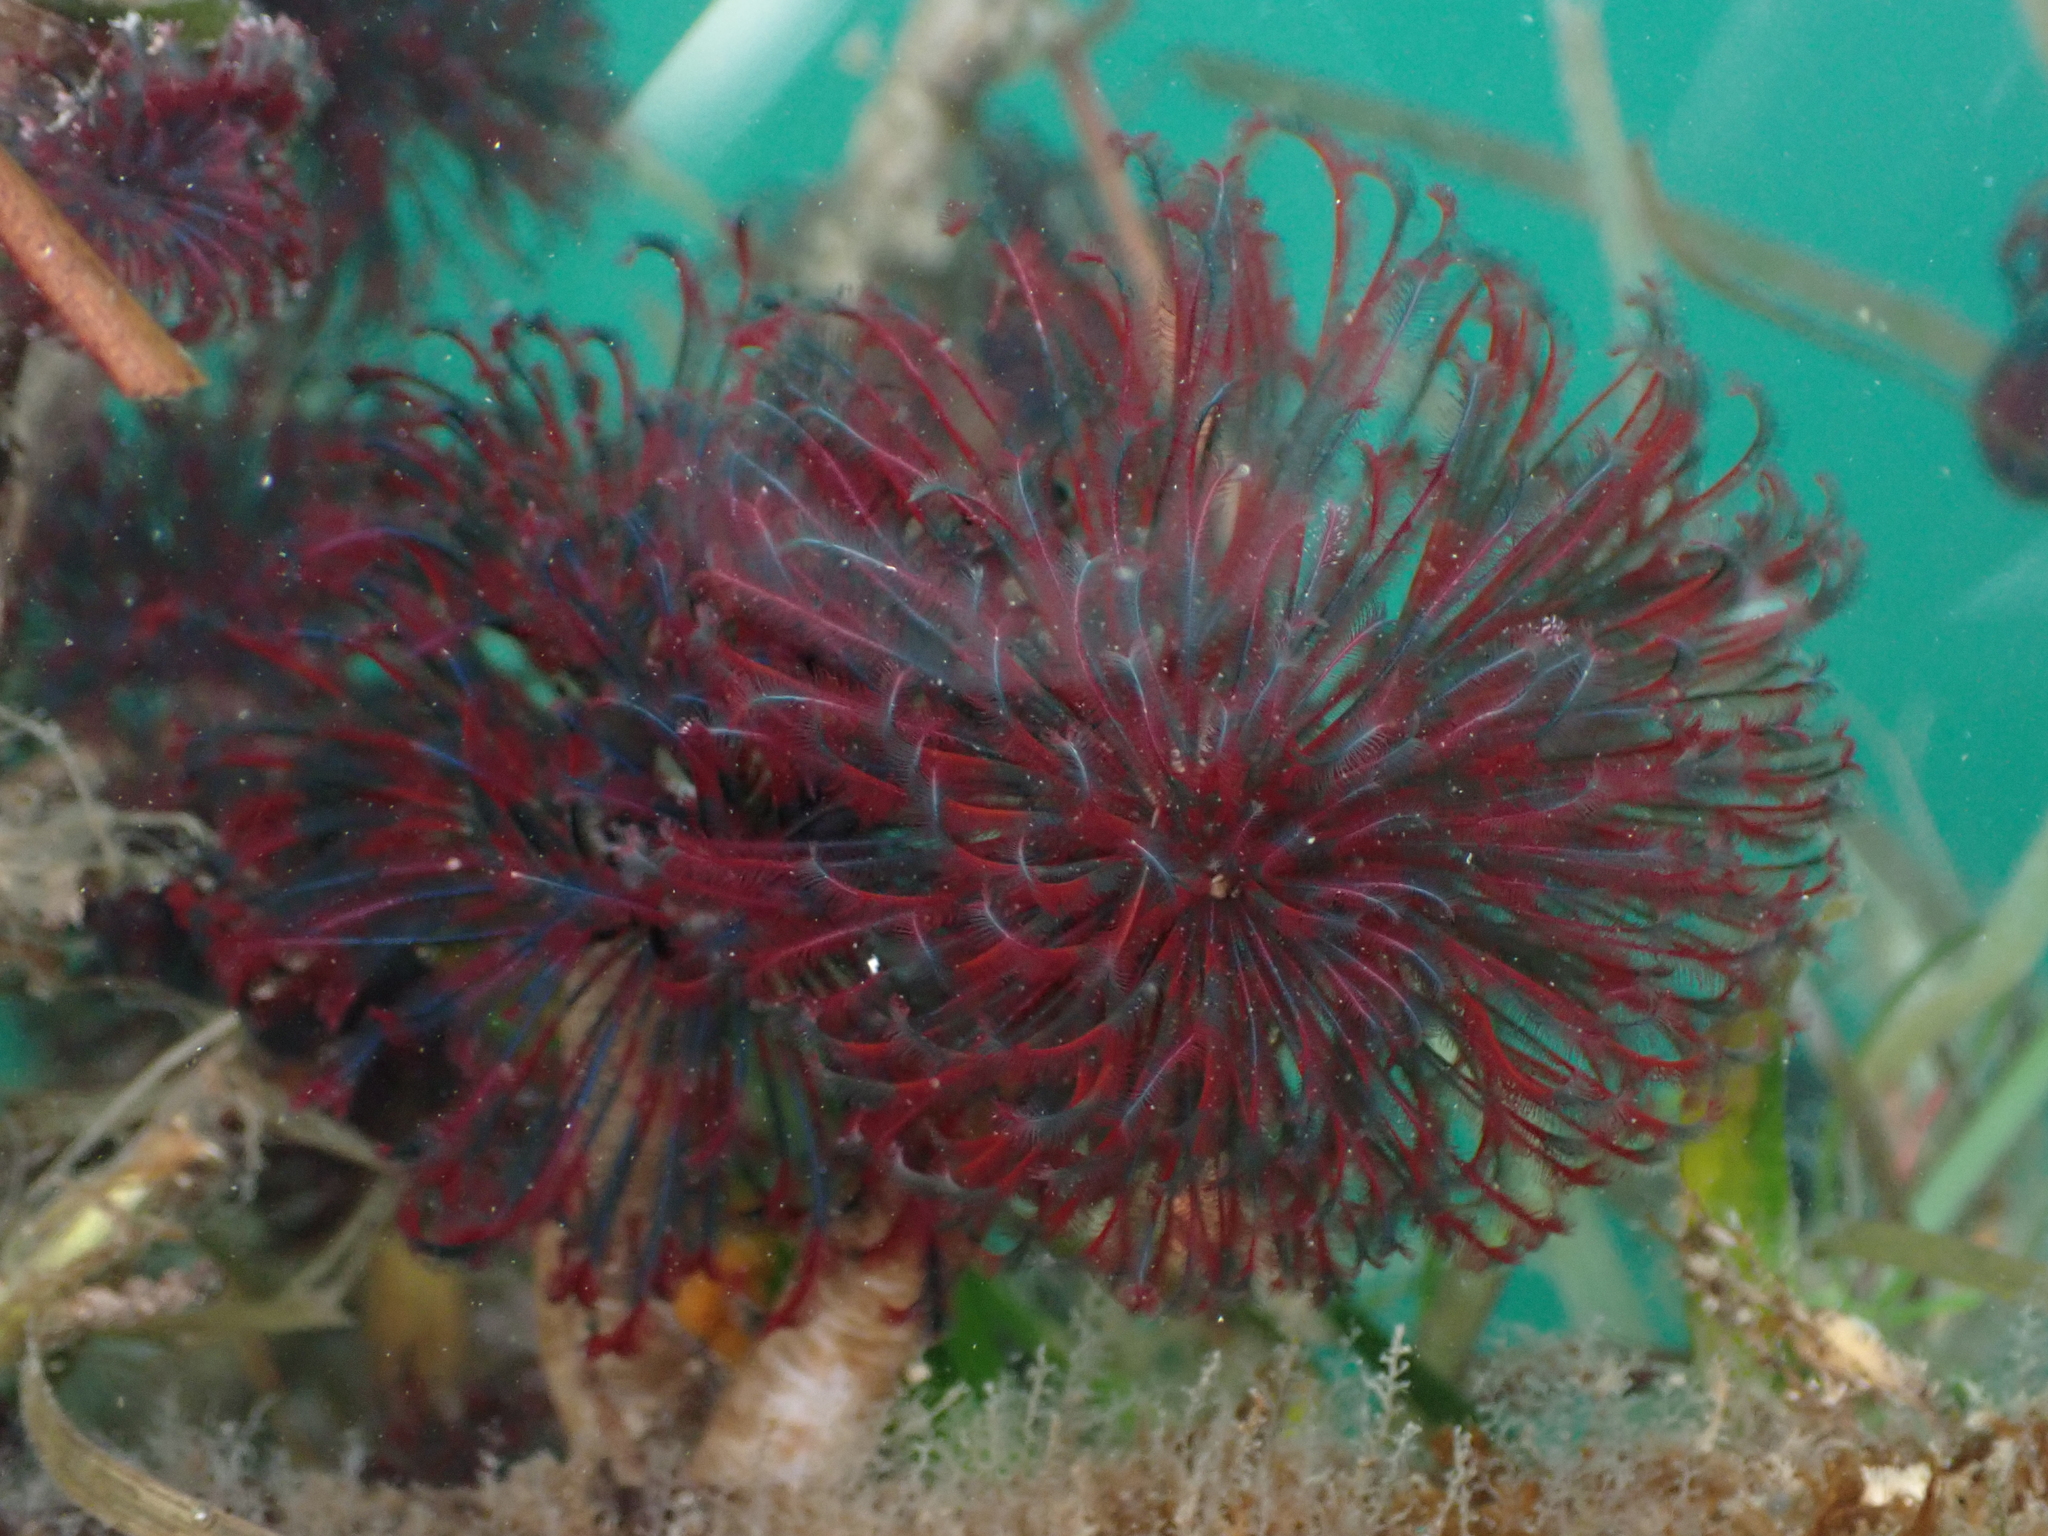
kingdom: Animalia
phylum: Annelida
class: Polychaeta
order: Sabellida
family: Sabellidae
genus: Eudistylia
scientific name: Eudistylia vancouveri
